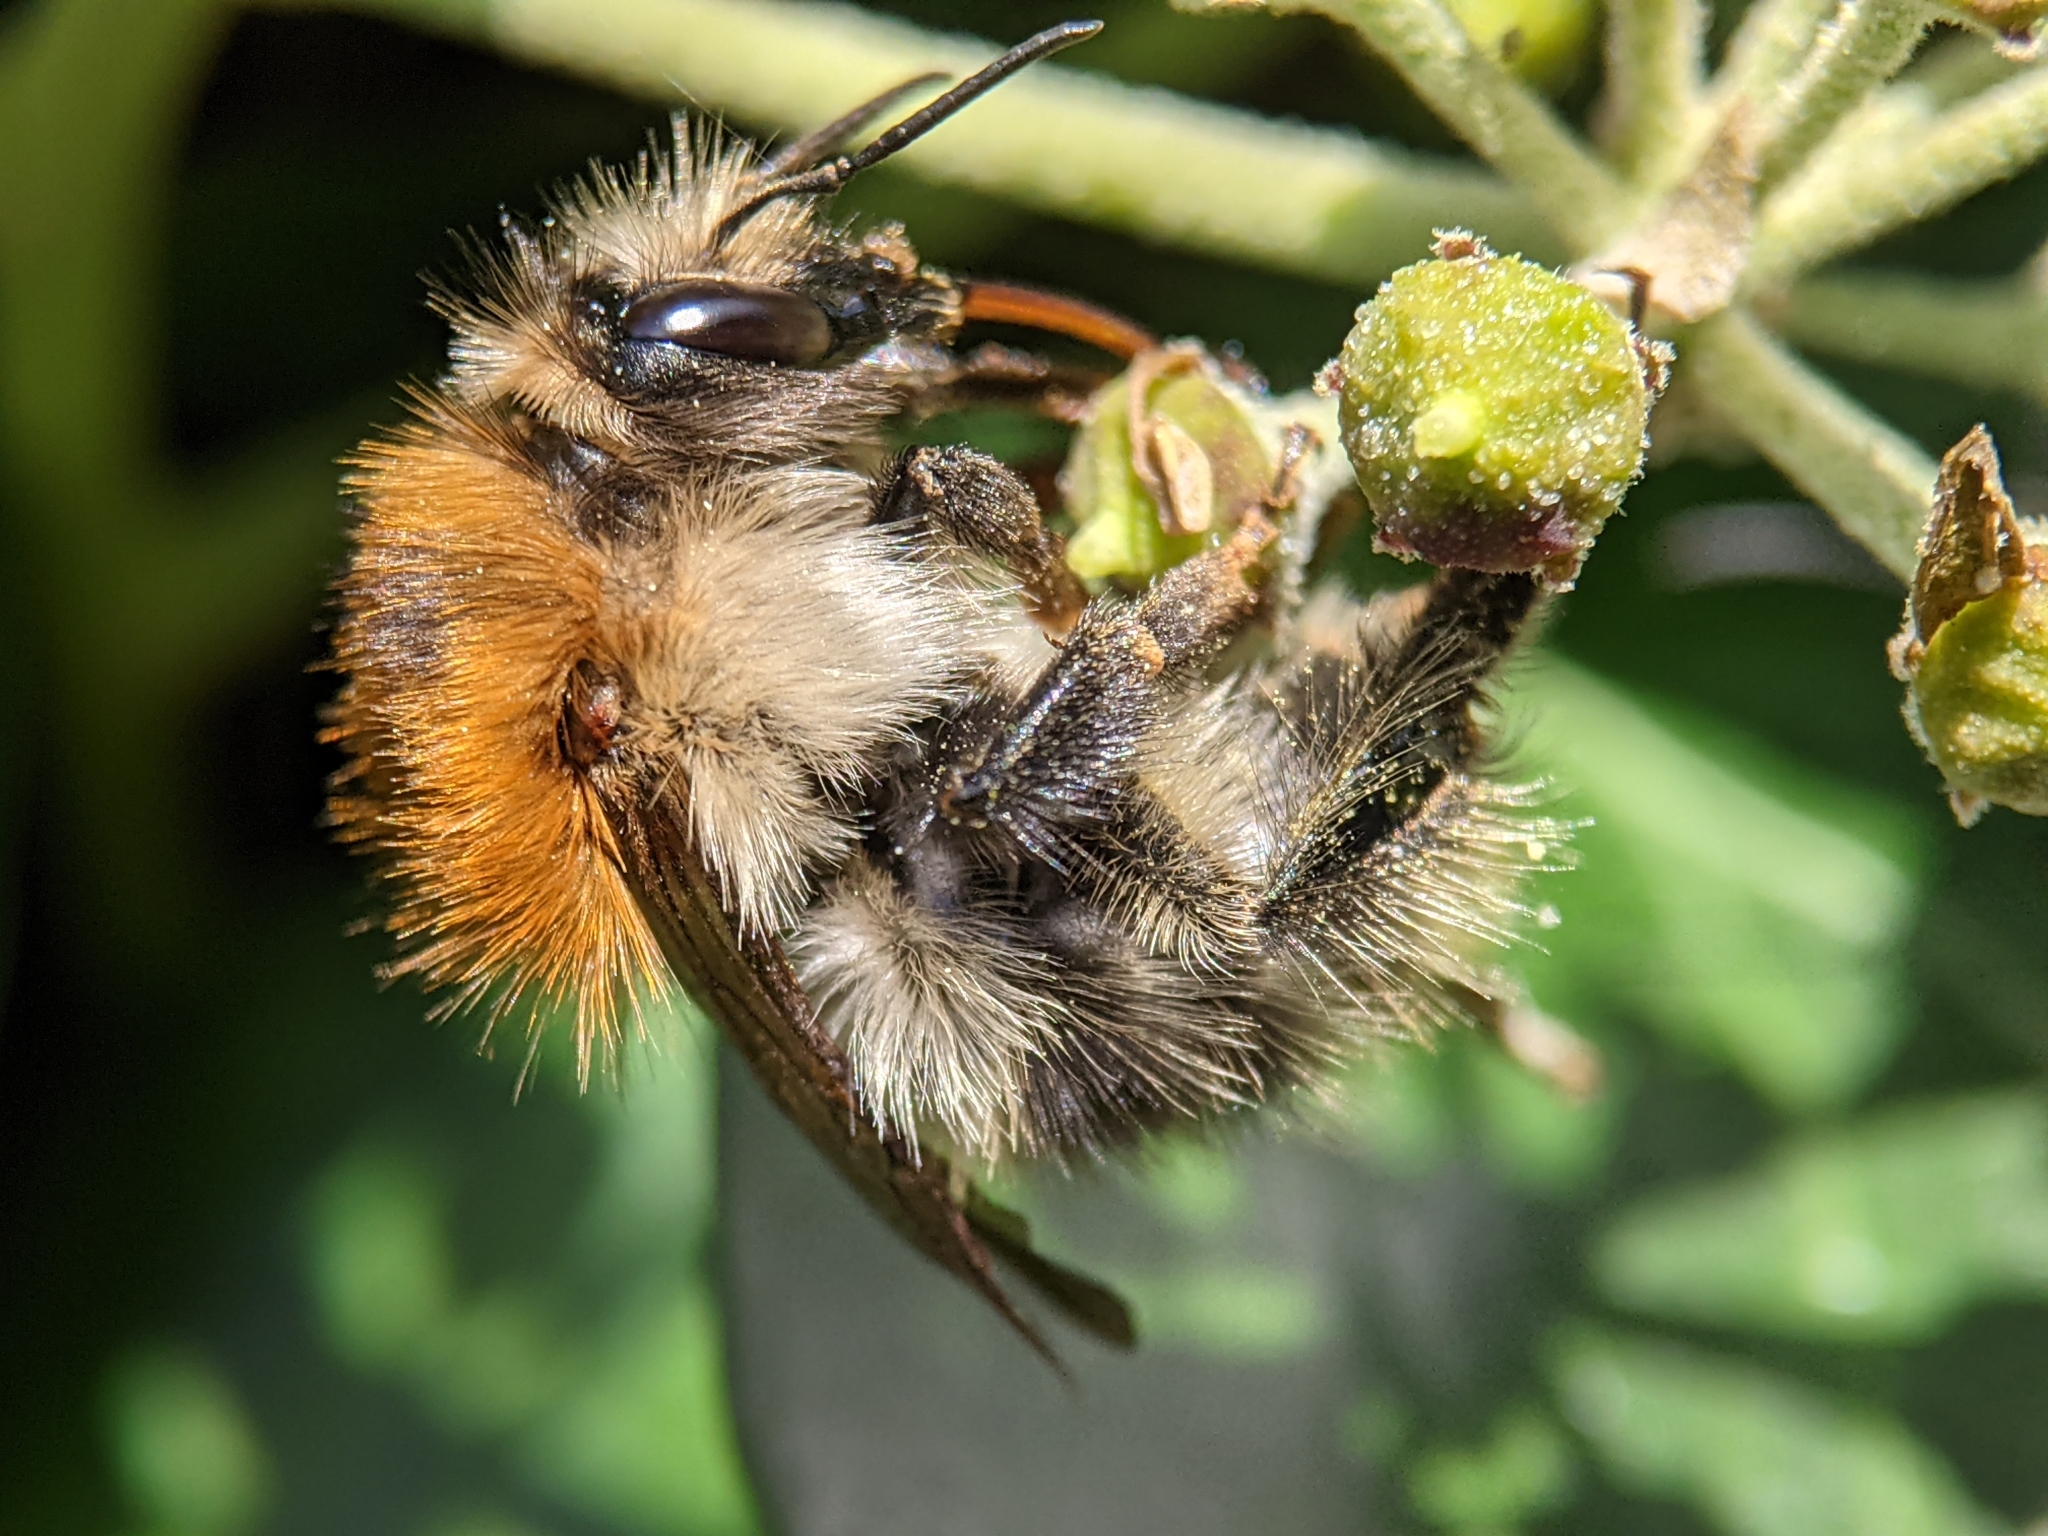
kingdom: Animalia
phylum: Arthropoda
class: Insecta
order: Hymenoptera
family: Apidae
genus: Bombus
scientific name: Bombus pascuorum
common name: Common carder bee
